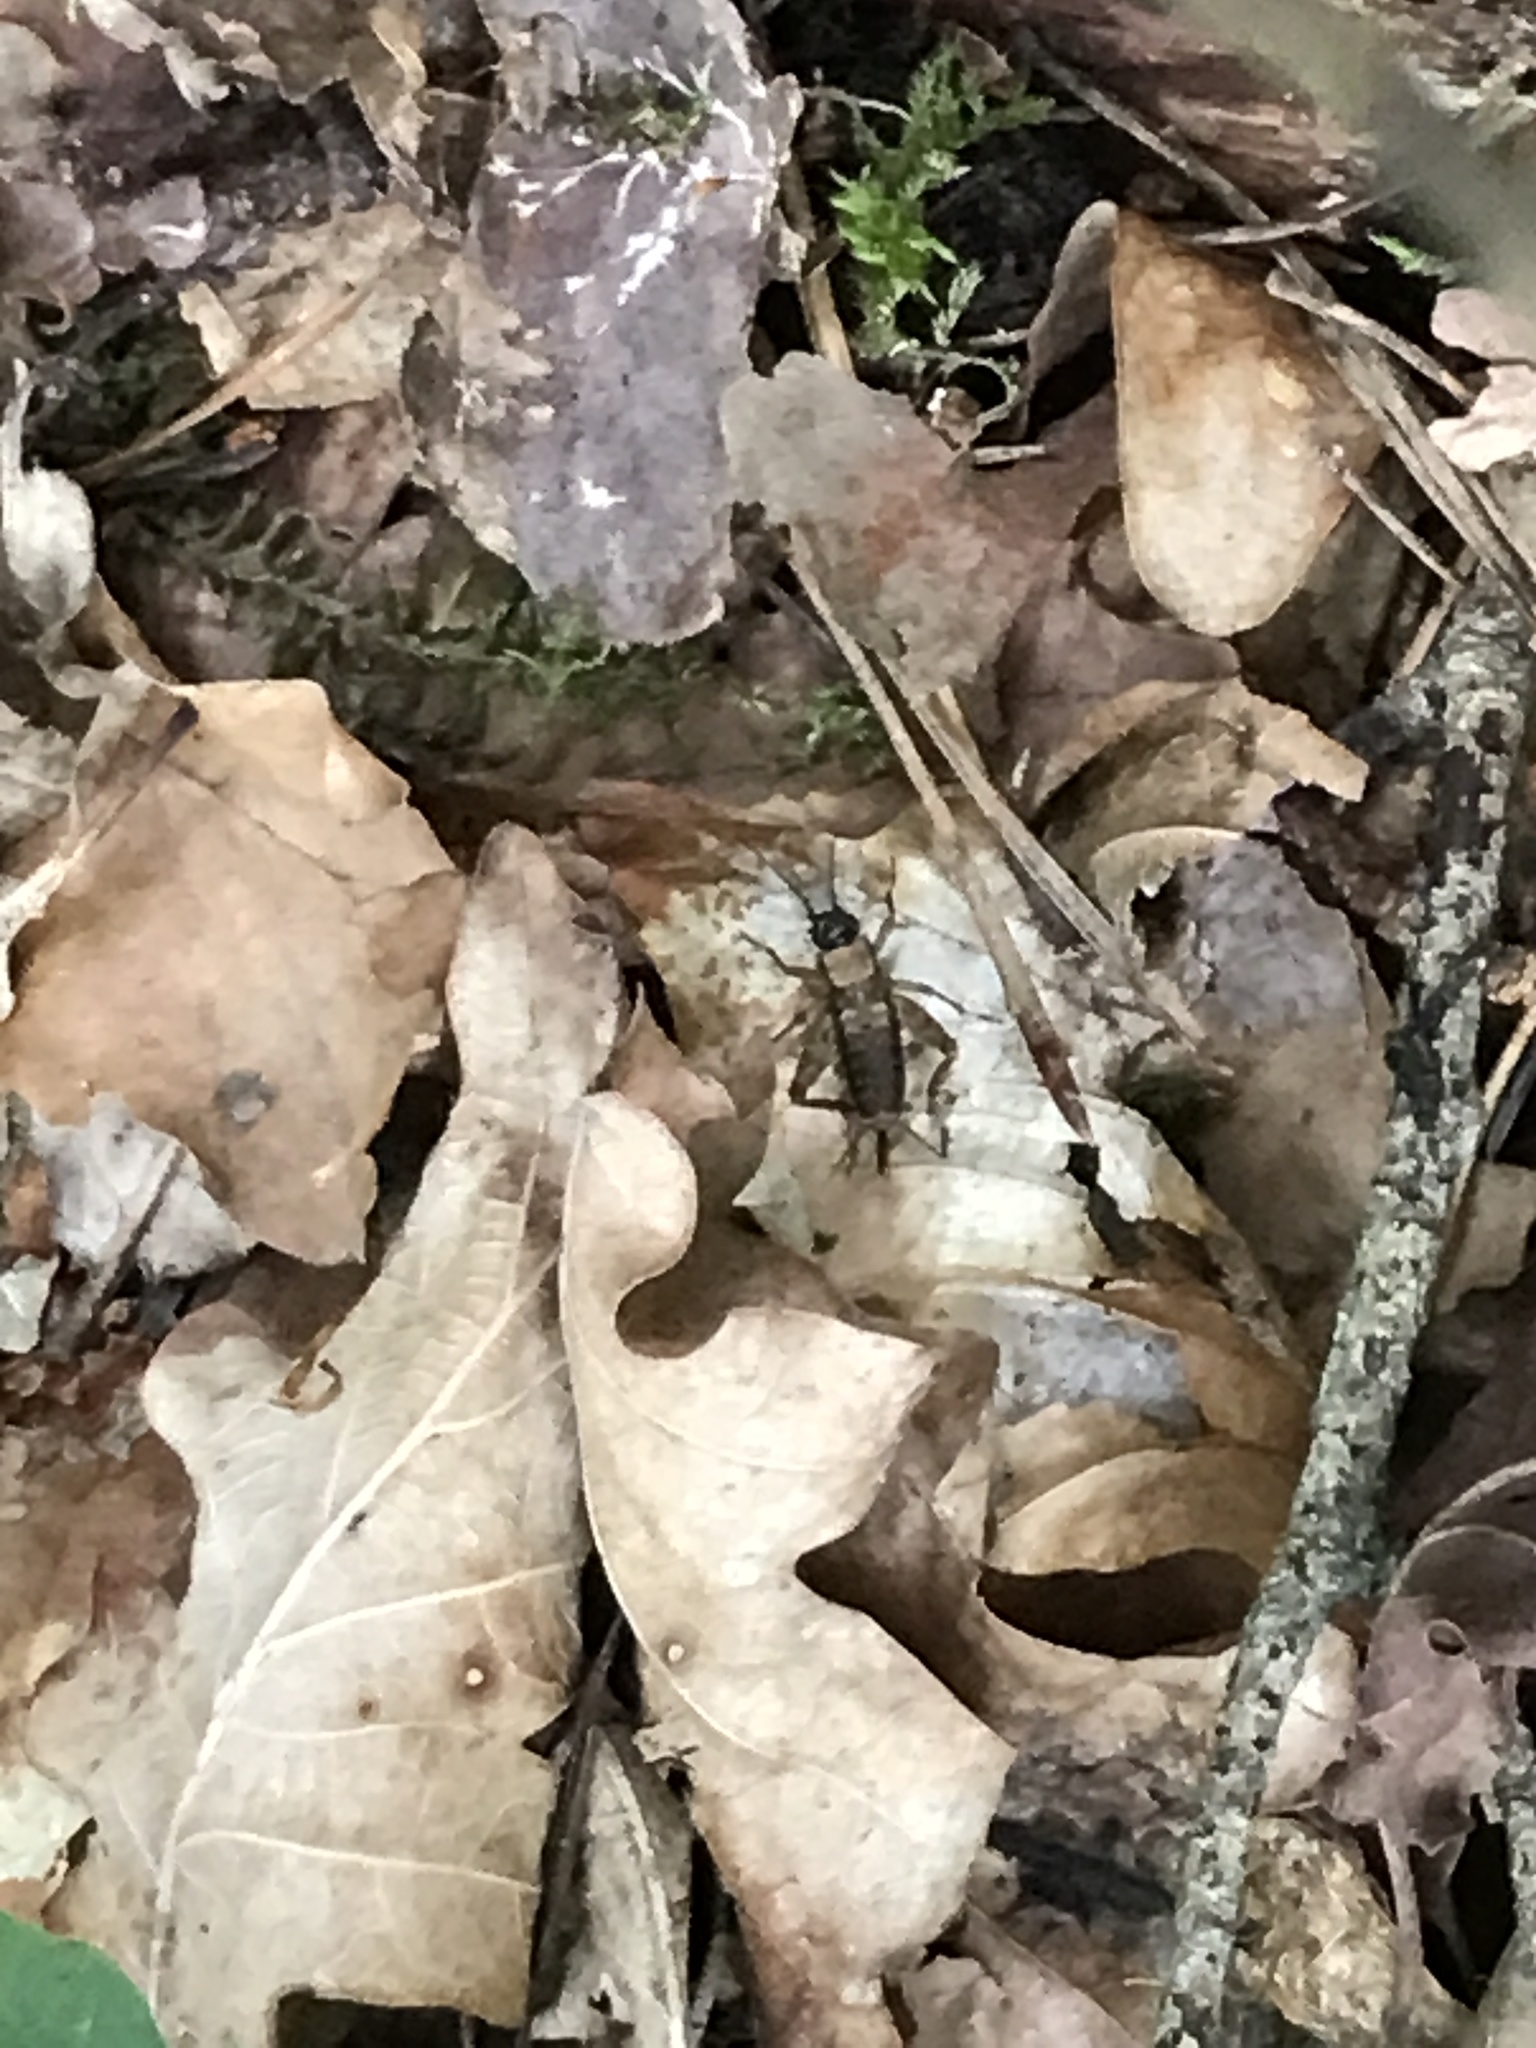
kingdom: Animalia
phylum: Arthropoda
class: Insecta
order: Orthoptera
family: Trigonidiidae
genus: Nemobius
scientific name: Nemobius sylvestris
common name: Wood-cricket
